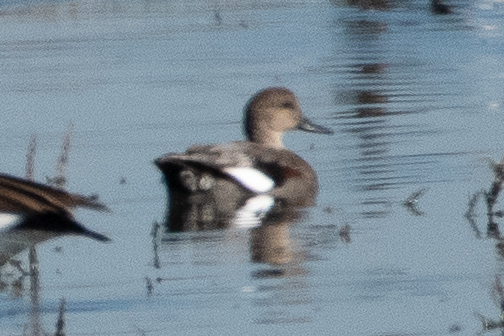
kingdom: Animalia
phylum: Chordata
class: Aves
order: Anseriformes
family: Anatidae
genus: Mareca
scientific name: Mareca strepera
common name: Gadwall
